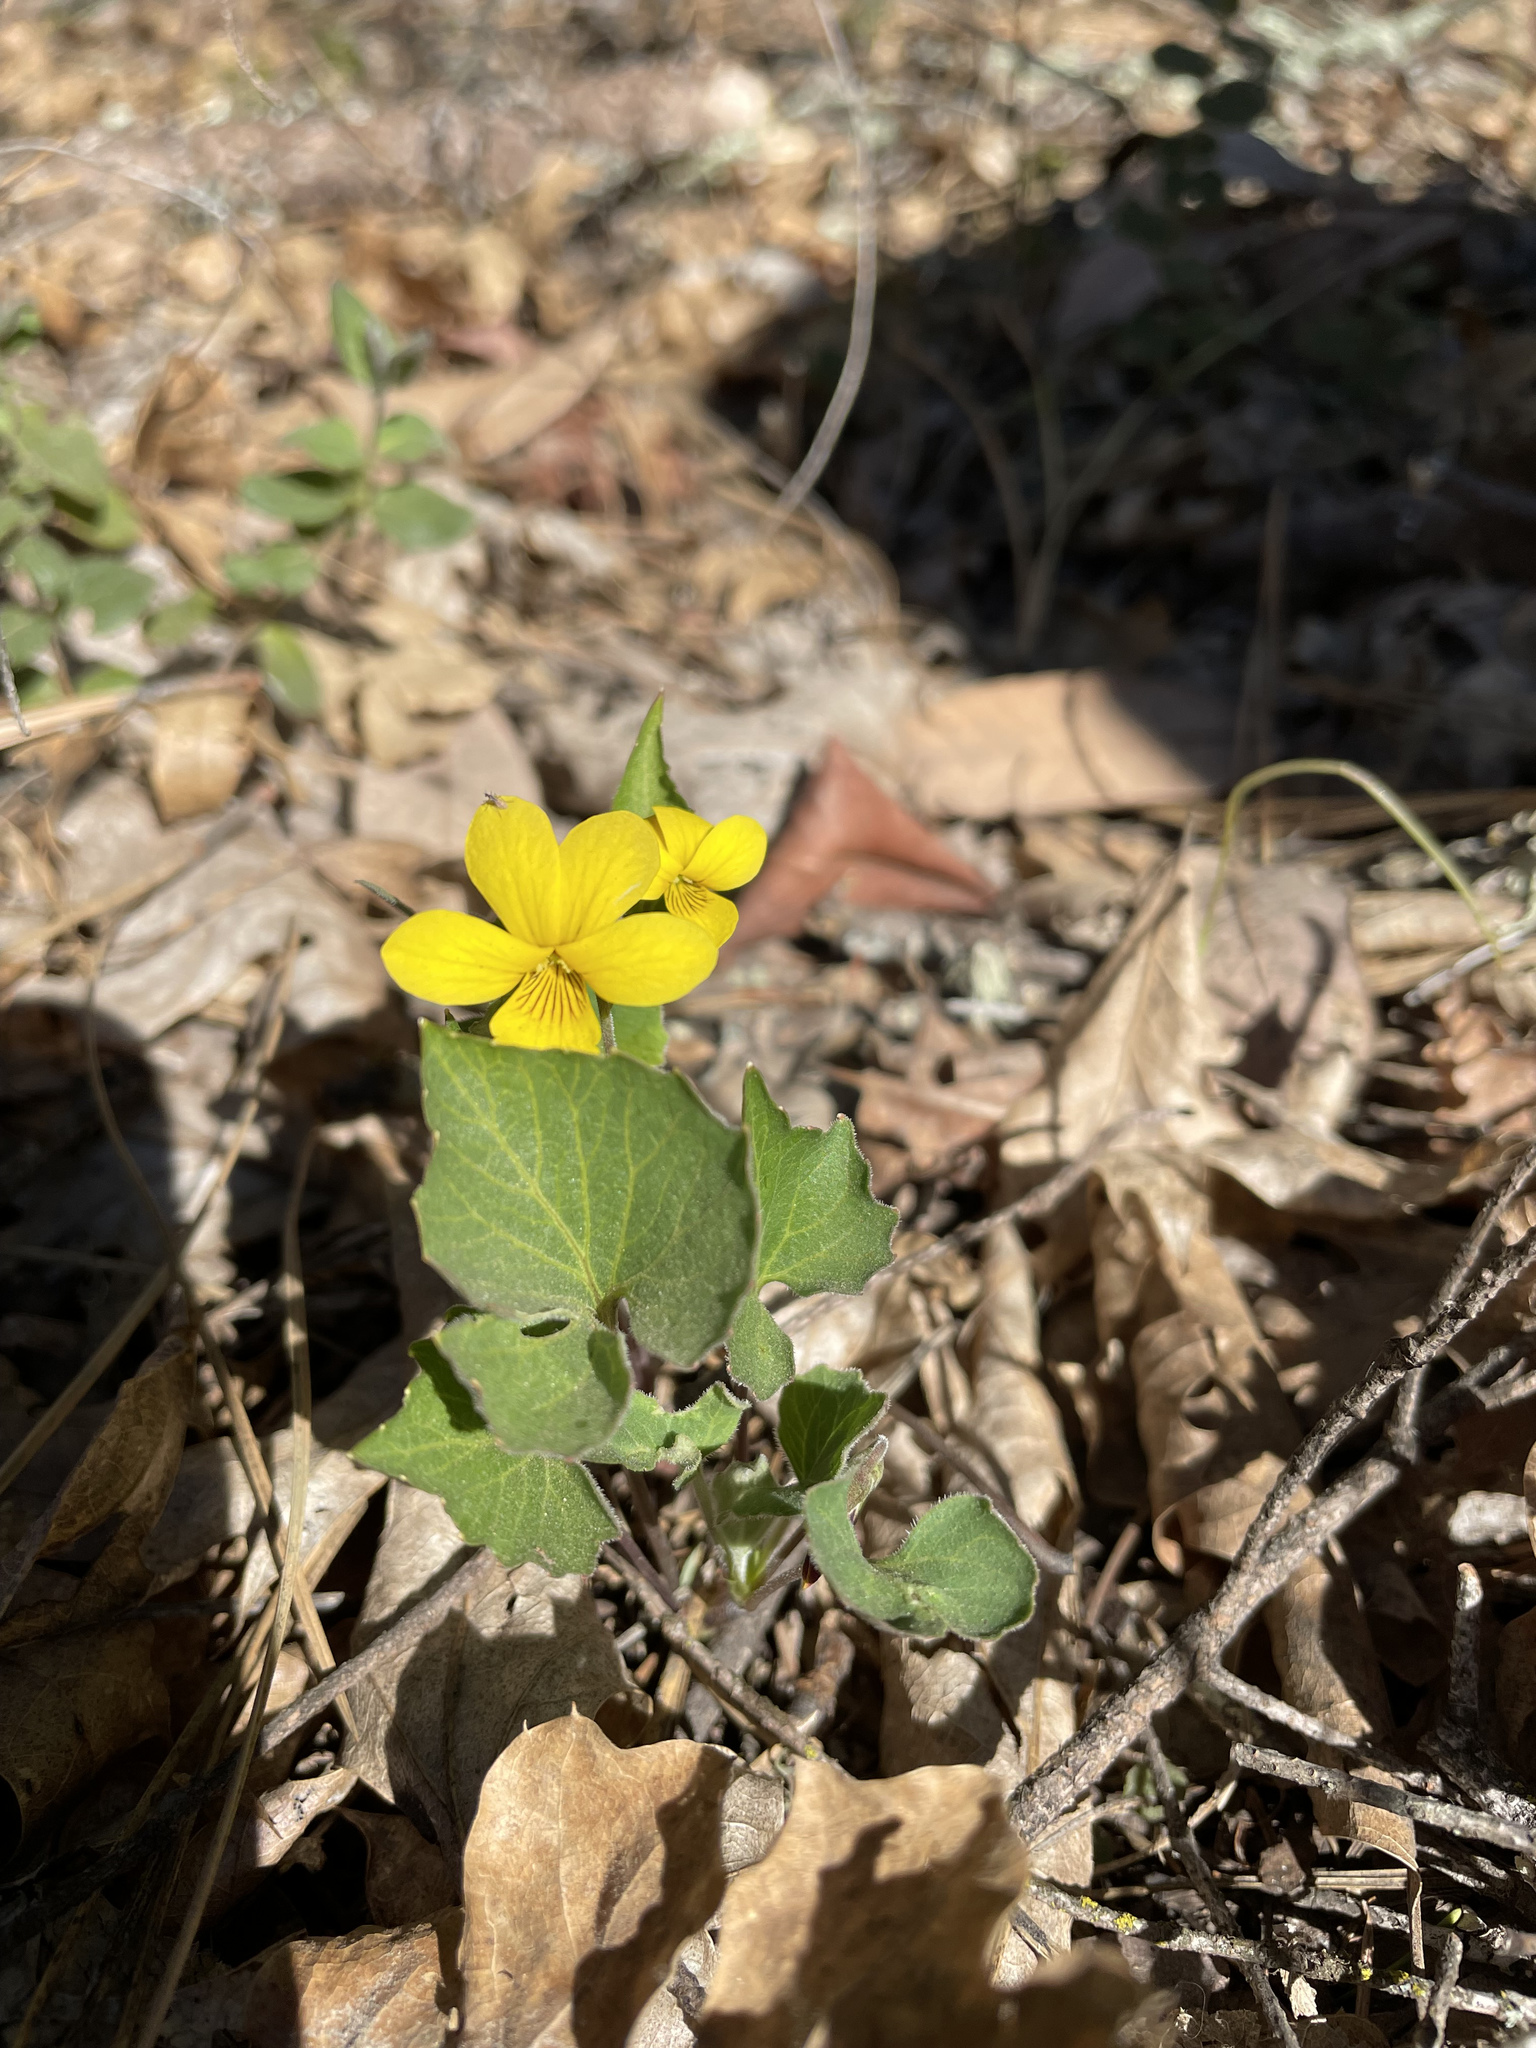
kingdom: Plantae
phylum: Tracheophyta
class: Magnoliopsida
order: Malpighiales
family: Violaceae
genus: Viola
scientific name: Viola lobata
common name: Pine violet
